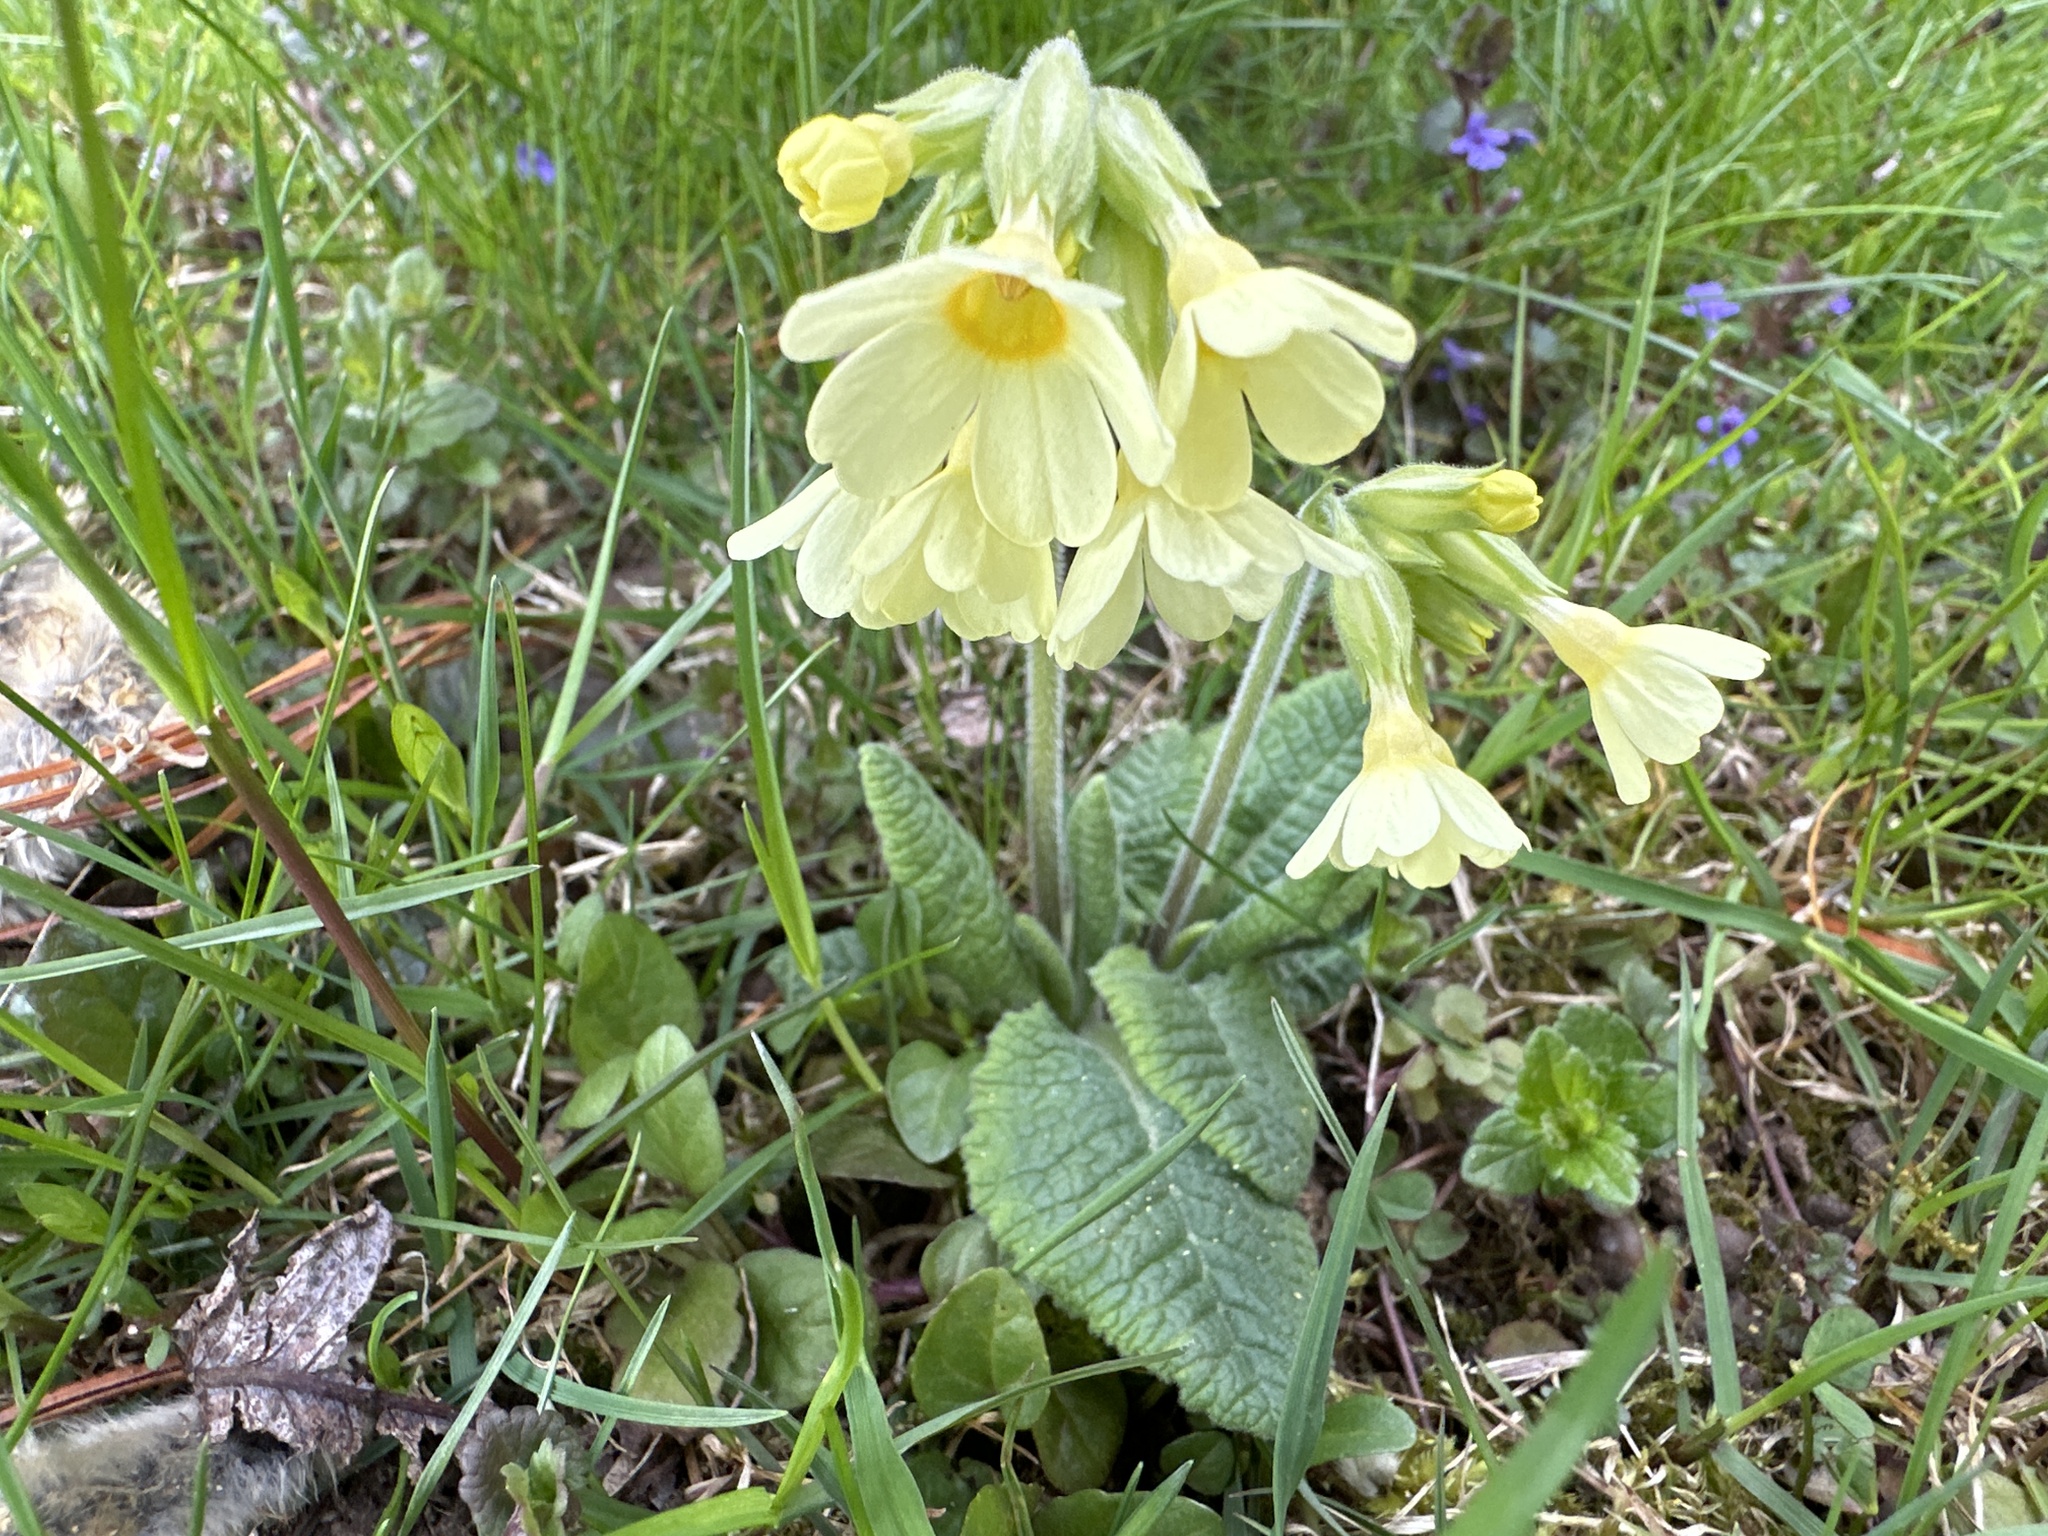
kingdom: Plantae
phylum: Tracheophyta
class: Magnoliopsida
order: Ericales
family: Primulaceae
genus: Primula
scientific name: Primula veris
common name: Cowslip
